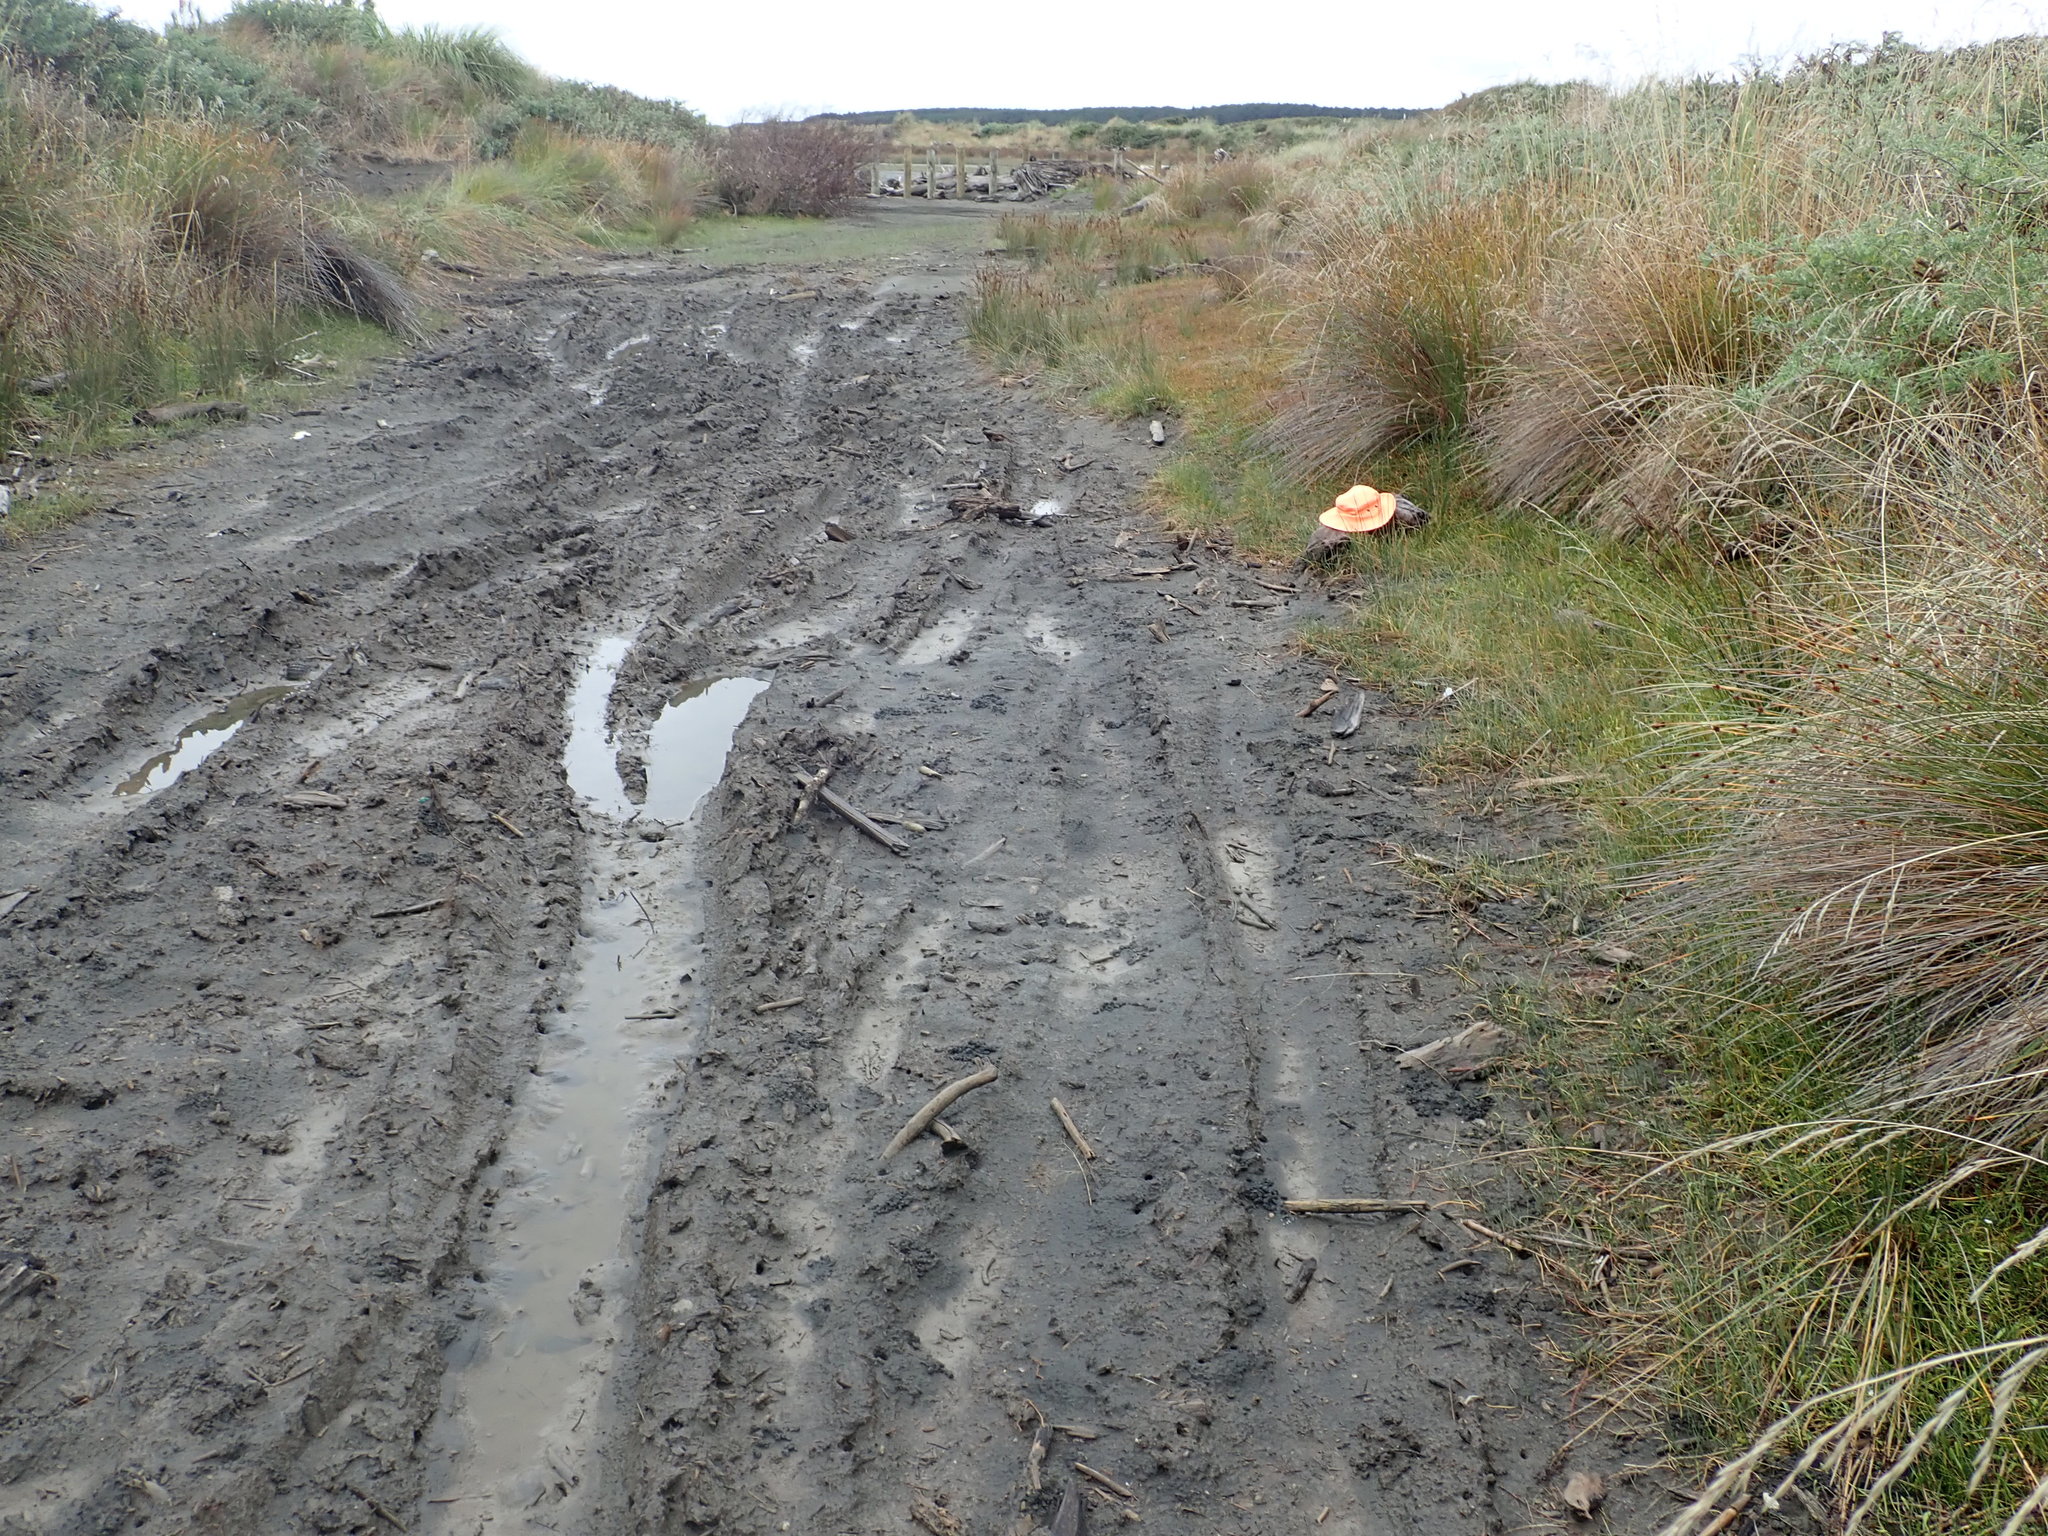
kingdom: Animalia
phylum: Arthropoda
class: Malacostraca
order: Decapoda
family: Varunidae
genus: Austrohelice
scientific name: Austrohelice crassa
